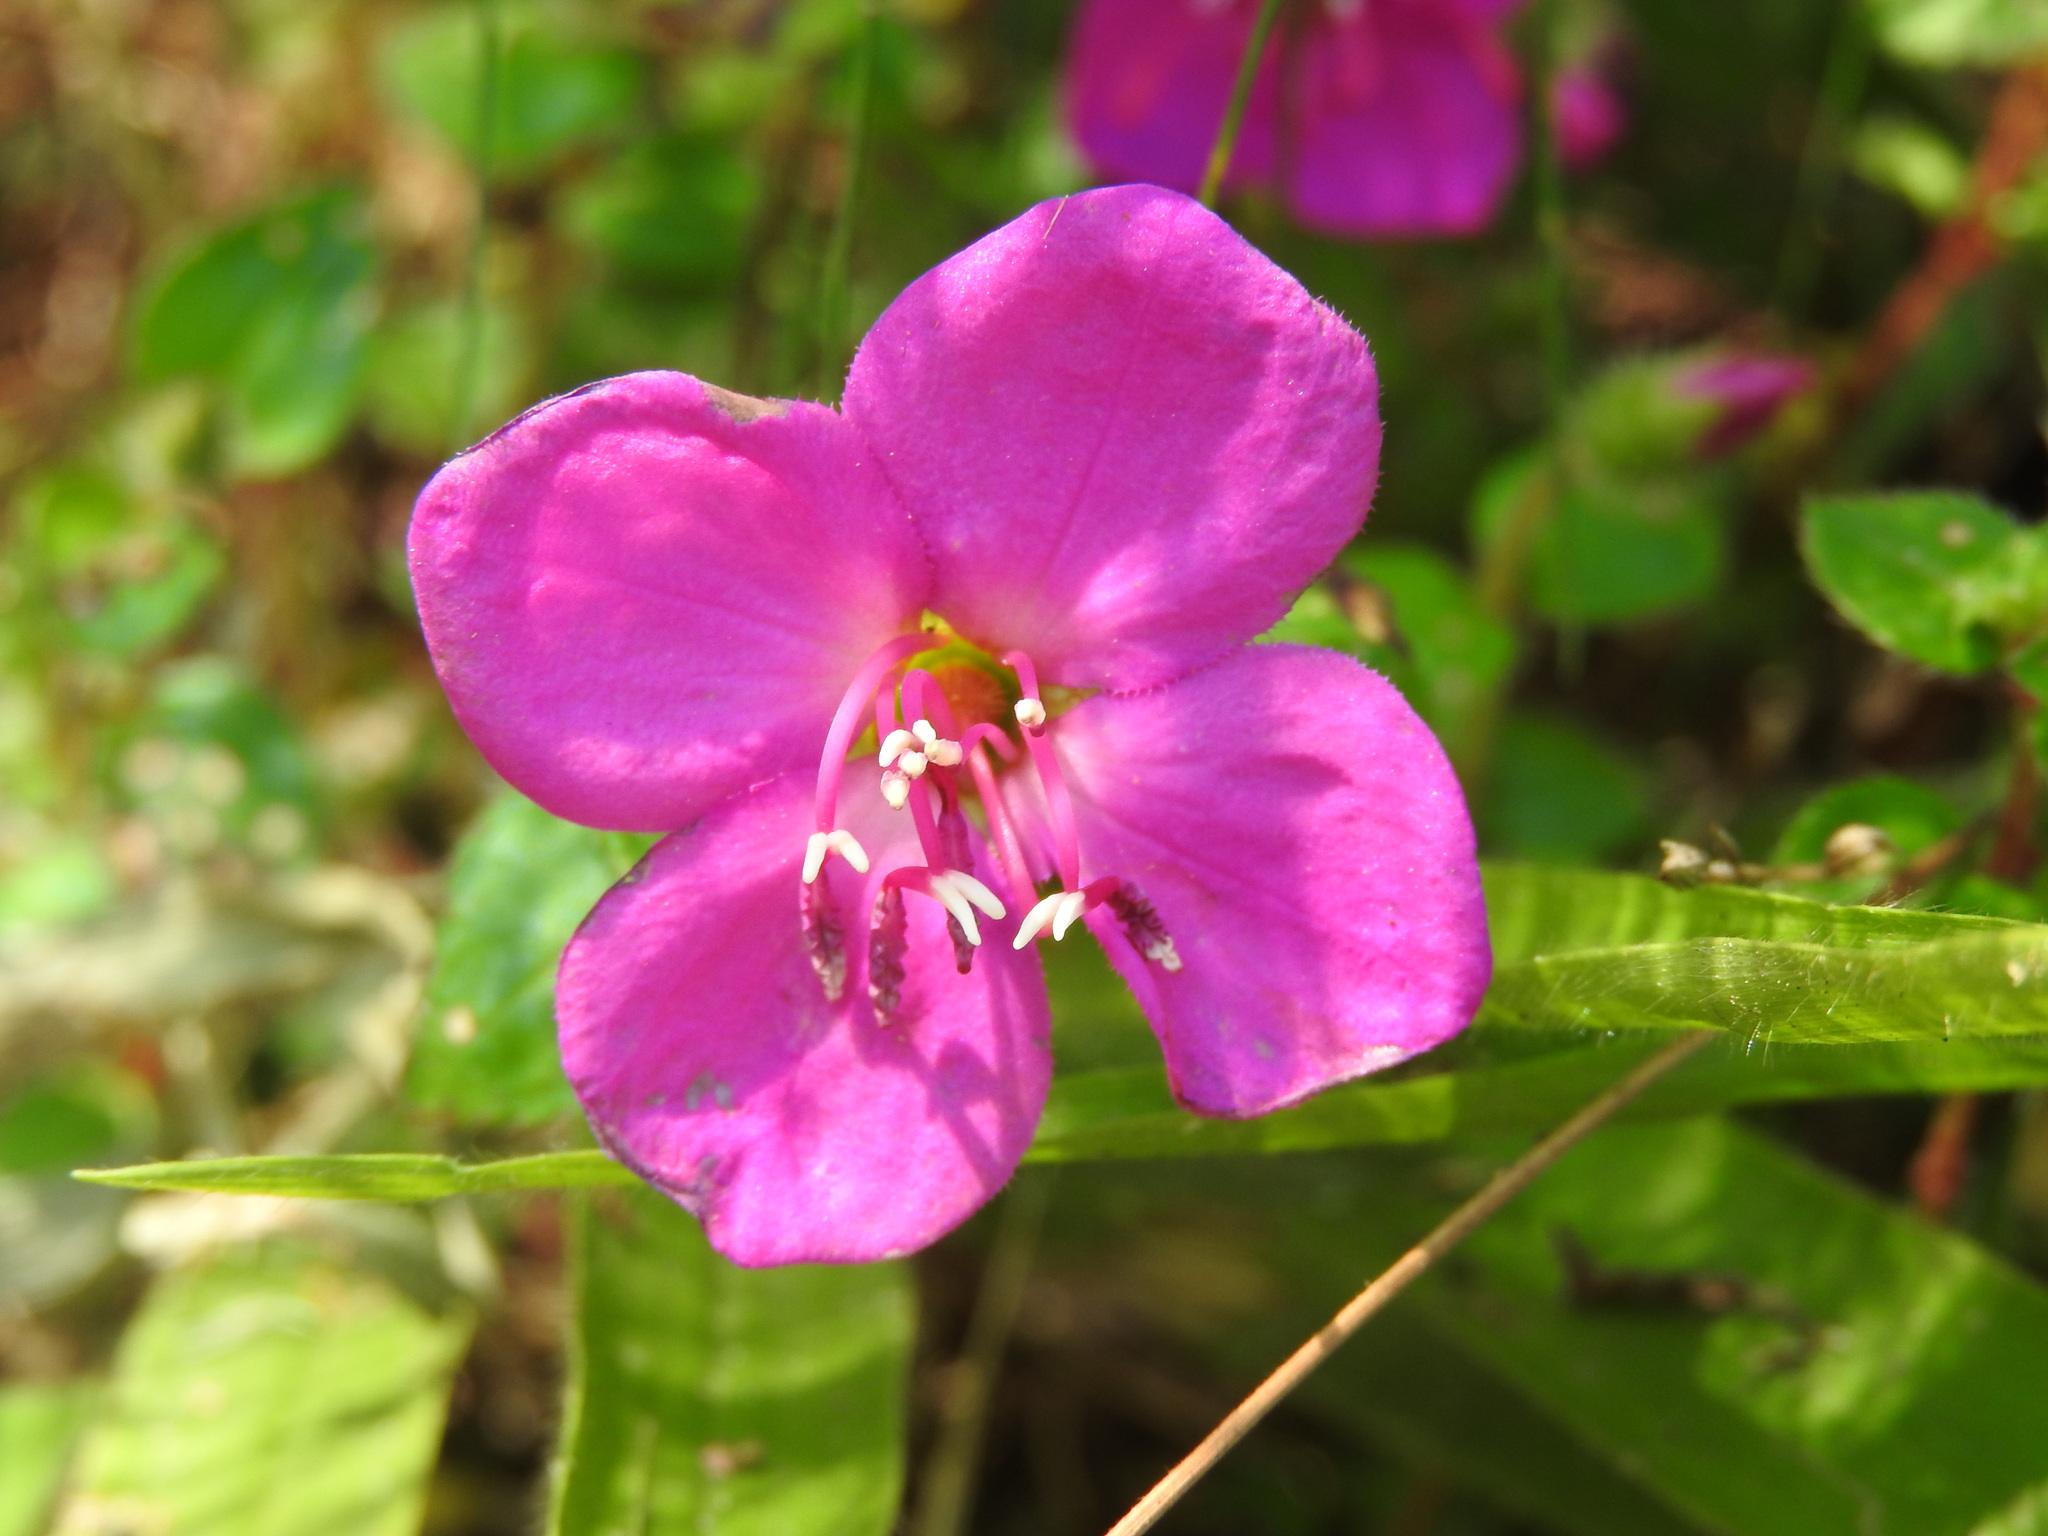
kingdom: Plantae
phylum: Tracheophyta
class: Magnoliopsida
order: Myrtales
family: Melastomataceae
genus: Heterocentron
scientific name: Heterocentron elegans
